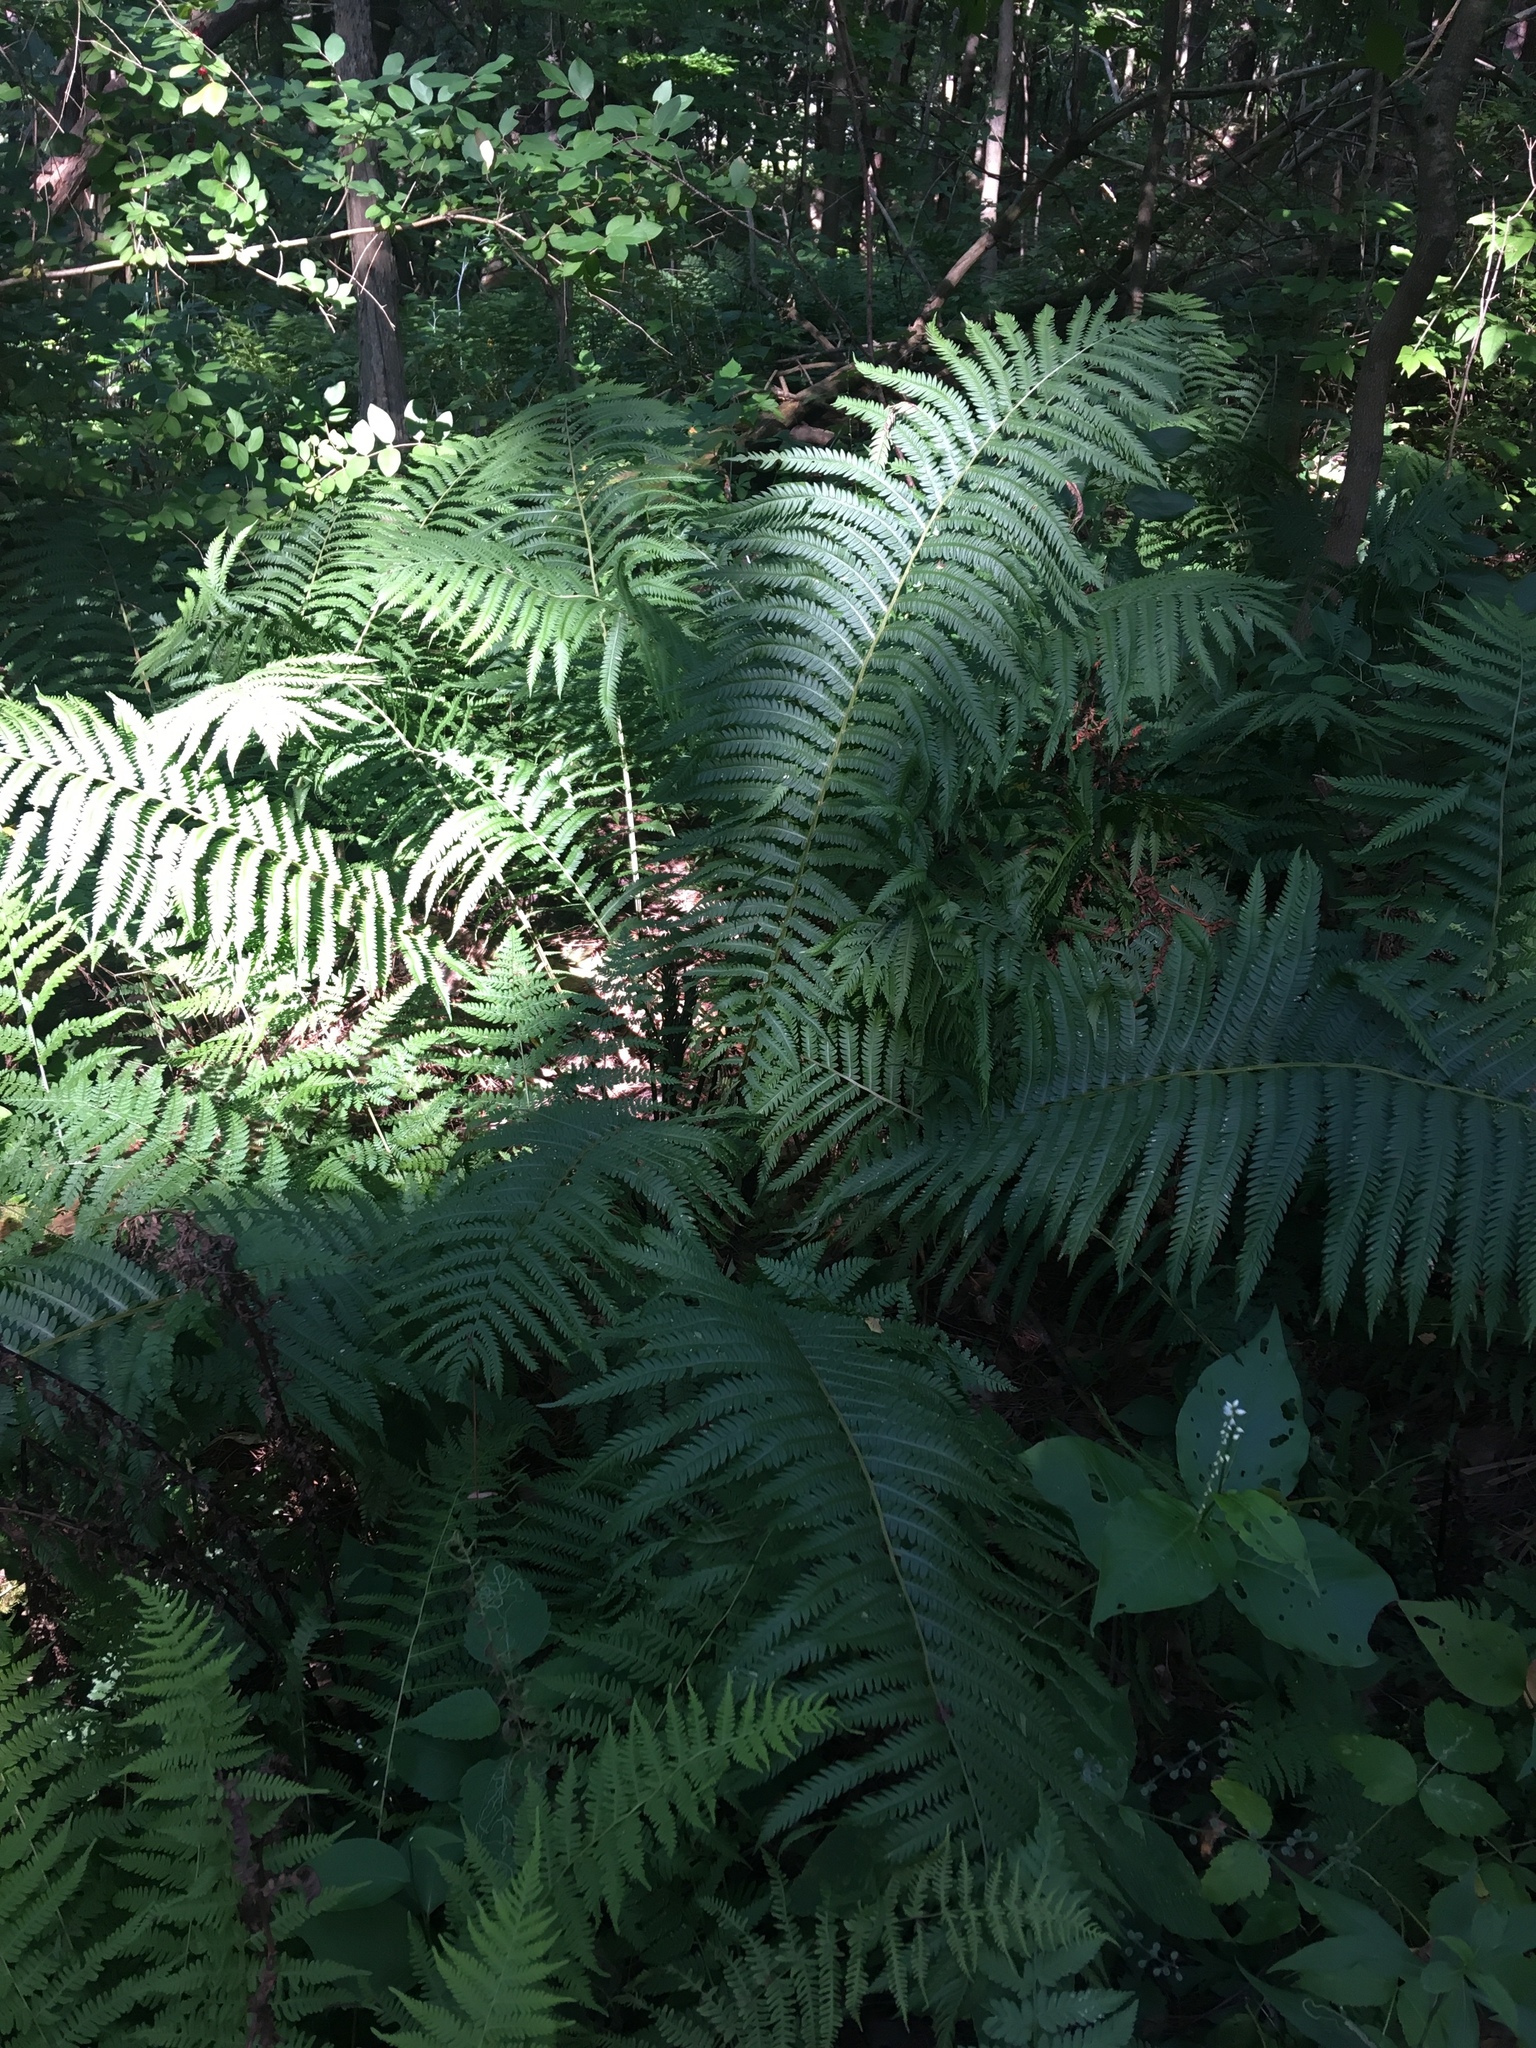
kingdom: Plantae
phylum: Tracheophyta
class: Polypodiopsida
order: Polypodiales
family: Onocleaceae
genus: Matteuccia
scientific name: Matteuccia struthiopteris
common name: Ostrich fern
